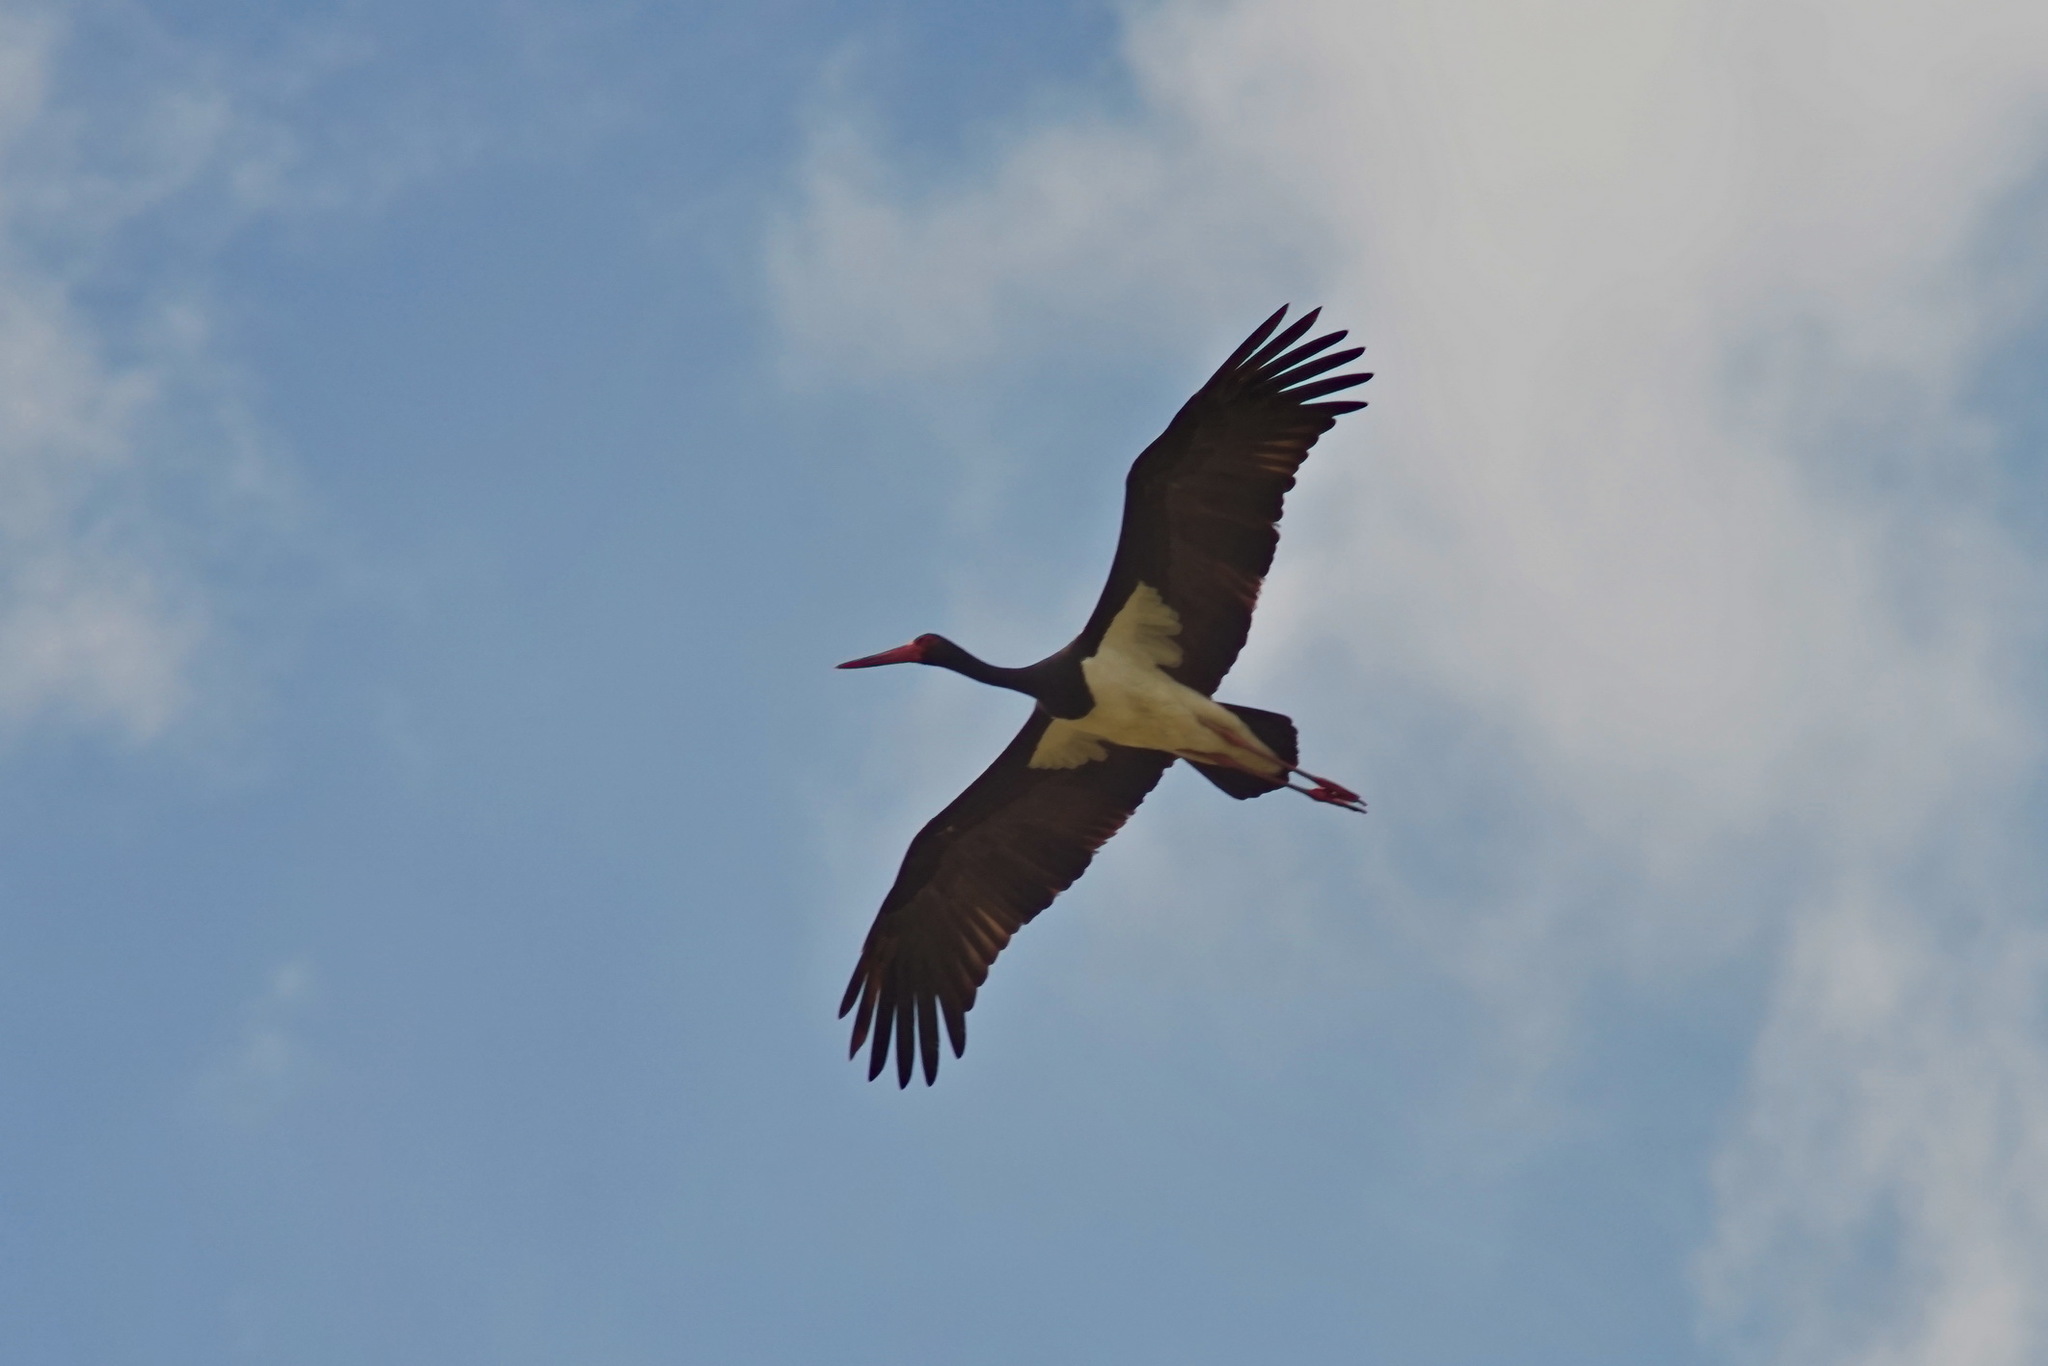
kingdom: Animalia
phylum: Chordata
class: Aves
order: Ciconiiformes
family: Ciconiidae
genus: Ciconia
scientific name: Ciconia nigra
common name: Black stork
